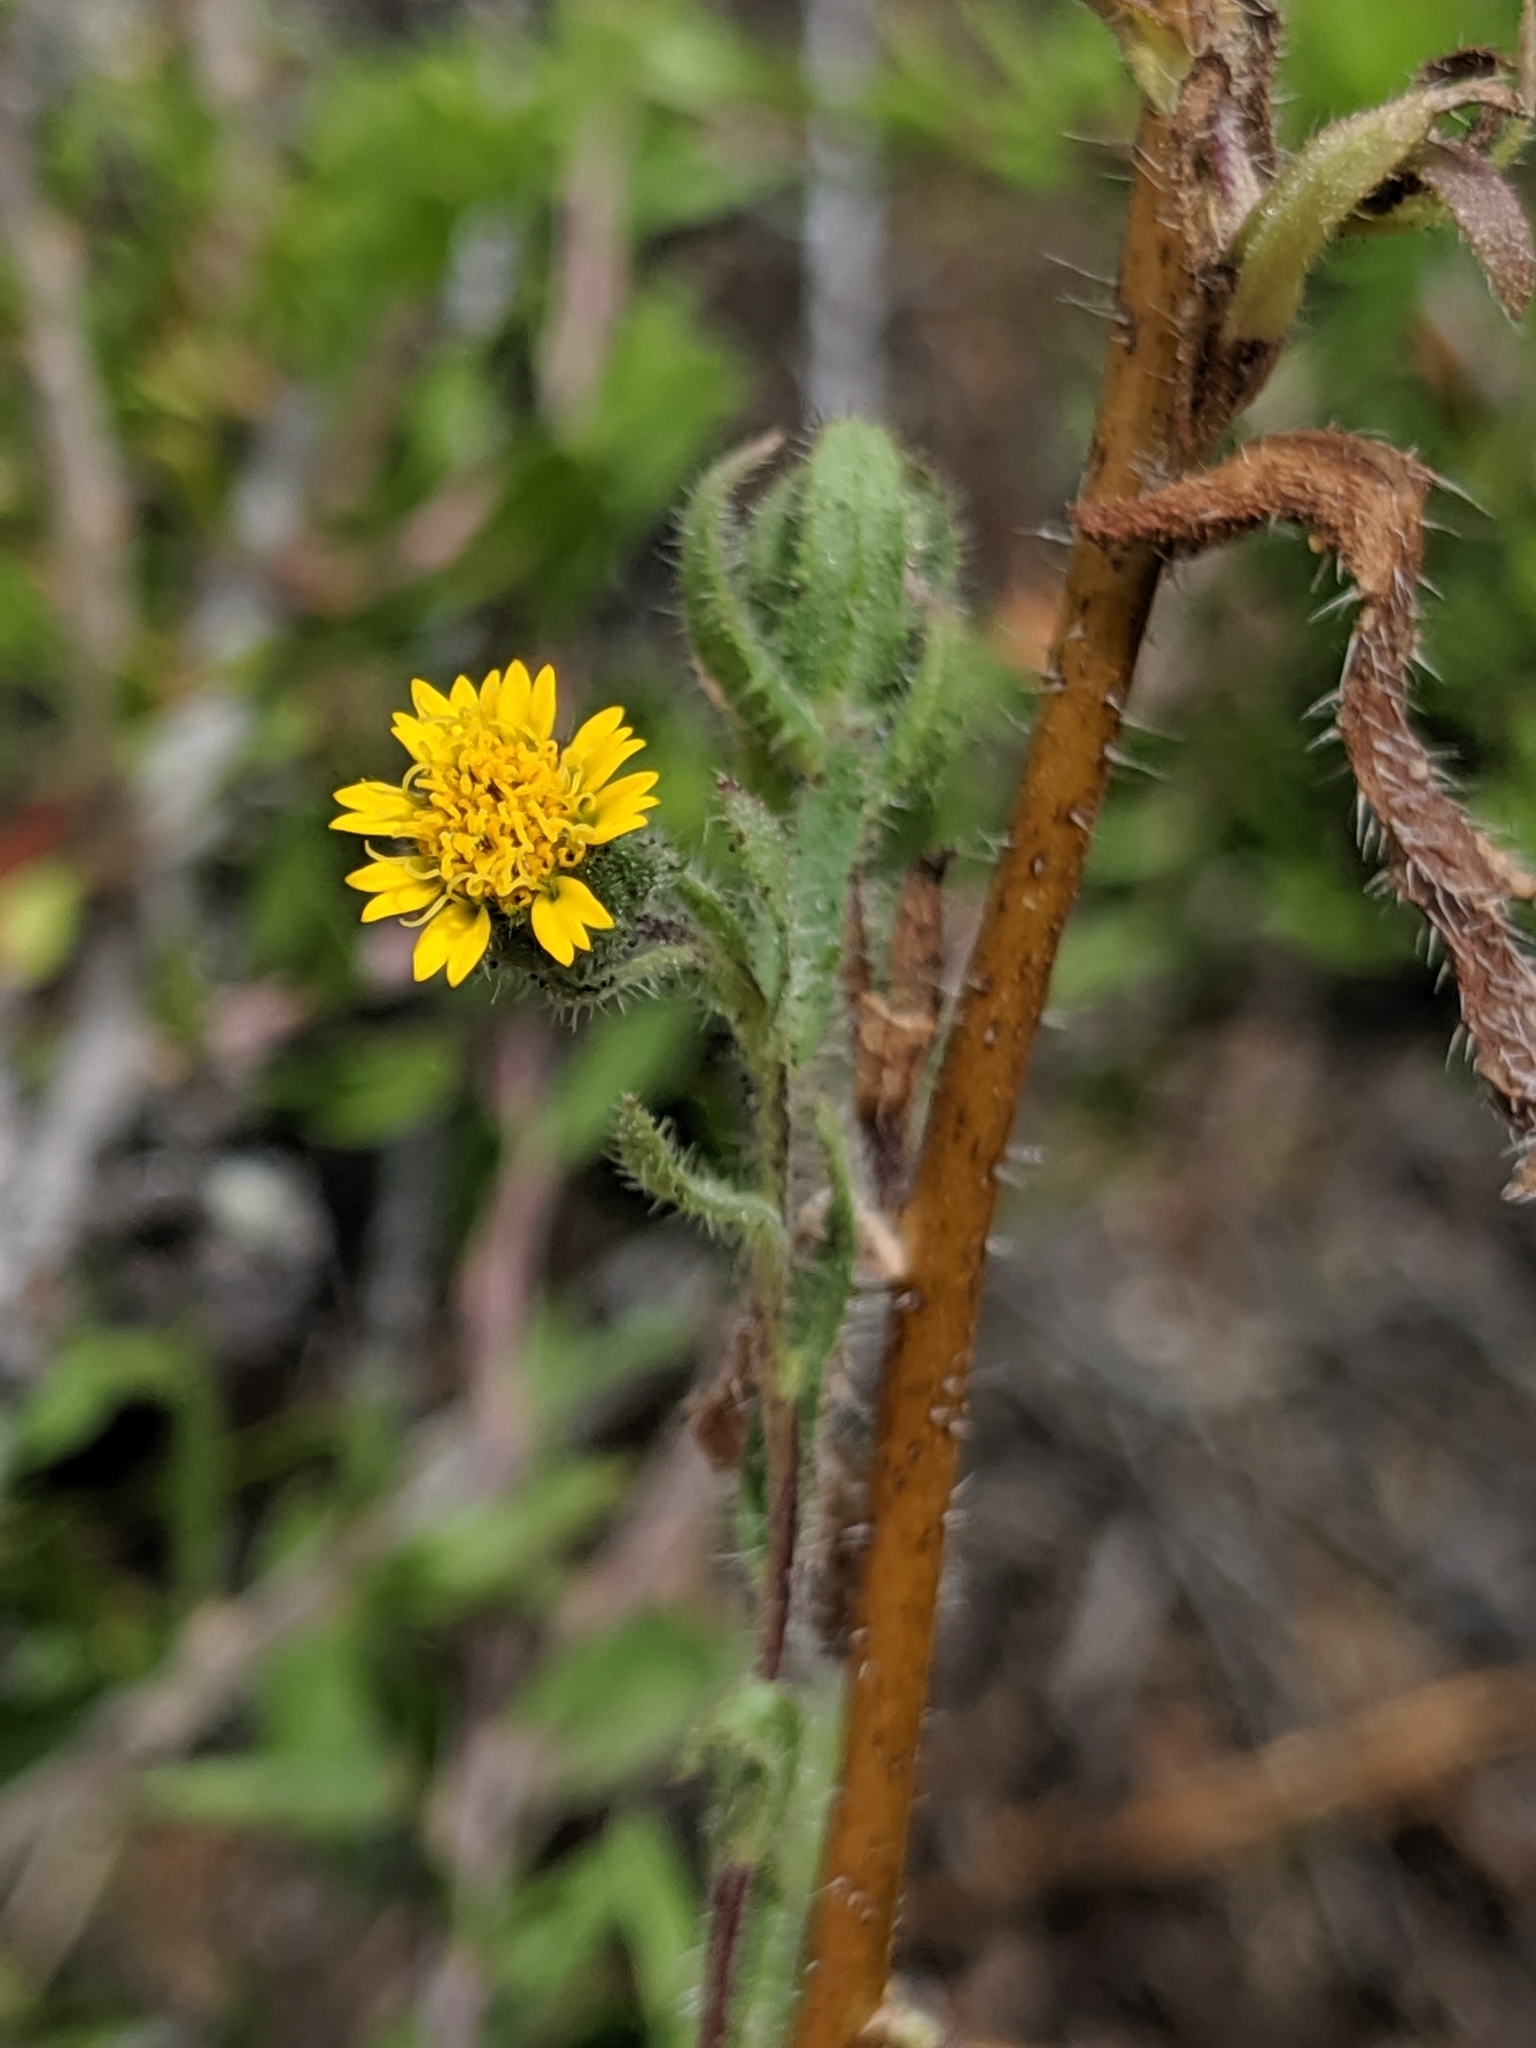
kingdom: Plantae
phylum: Tracheophyta
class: Magnoliopsida
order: Asterales
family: Asteraceae
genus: Layia
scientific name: Layia hieracioides
